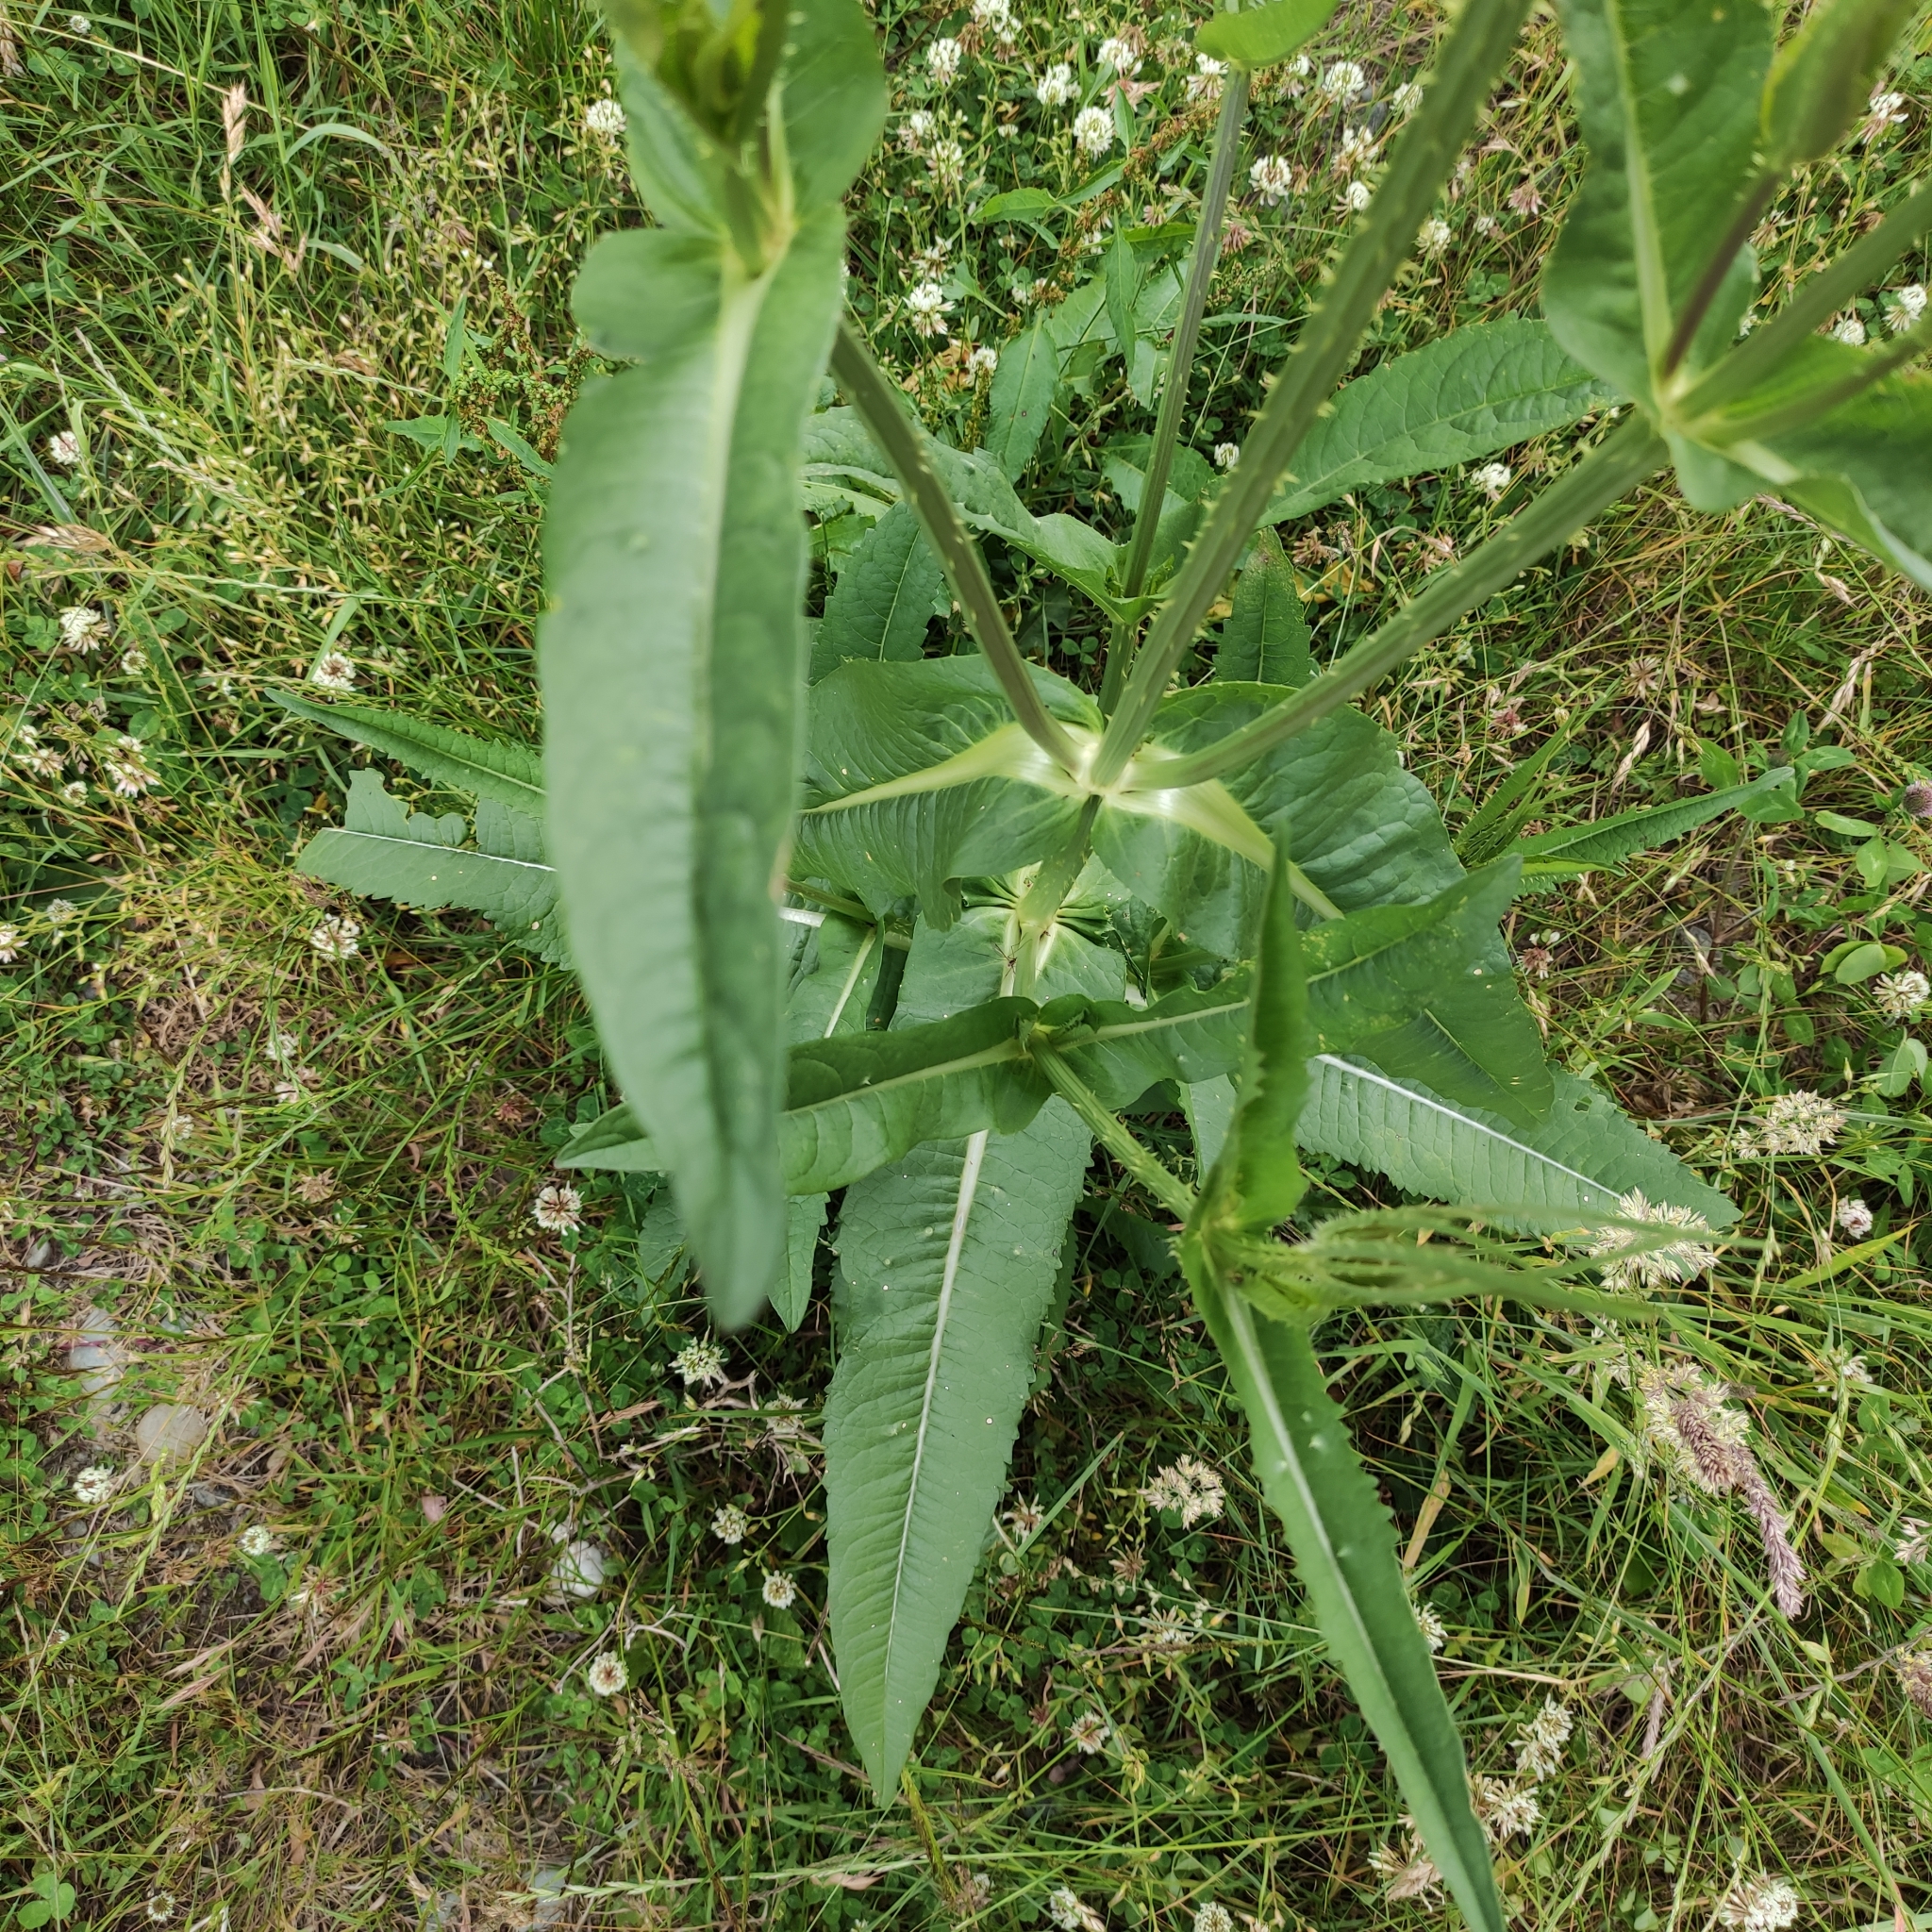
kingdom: Plantae
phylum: Tracheophyta
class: Magnoliopsida
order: Dipsacales
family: Caprifoliaceae
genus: Dipsacus
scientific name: Dipsacus fullonum
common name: Teasel
